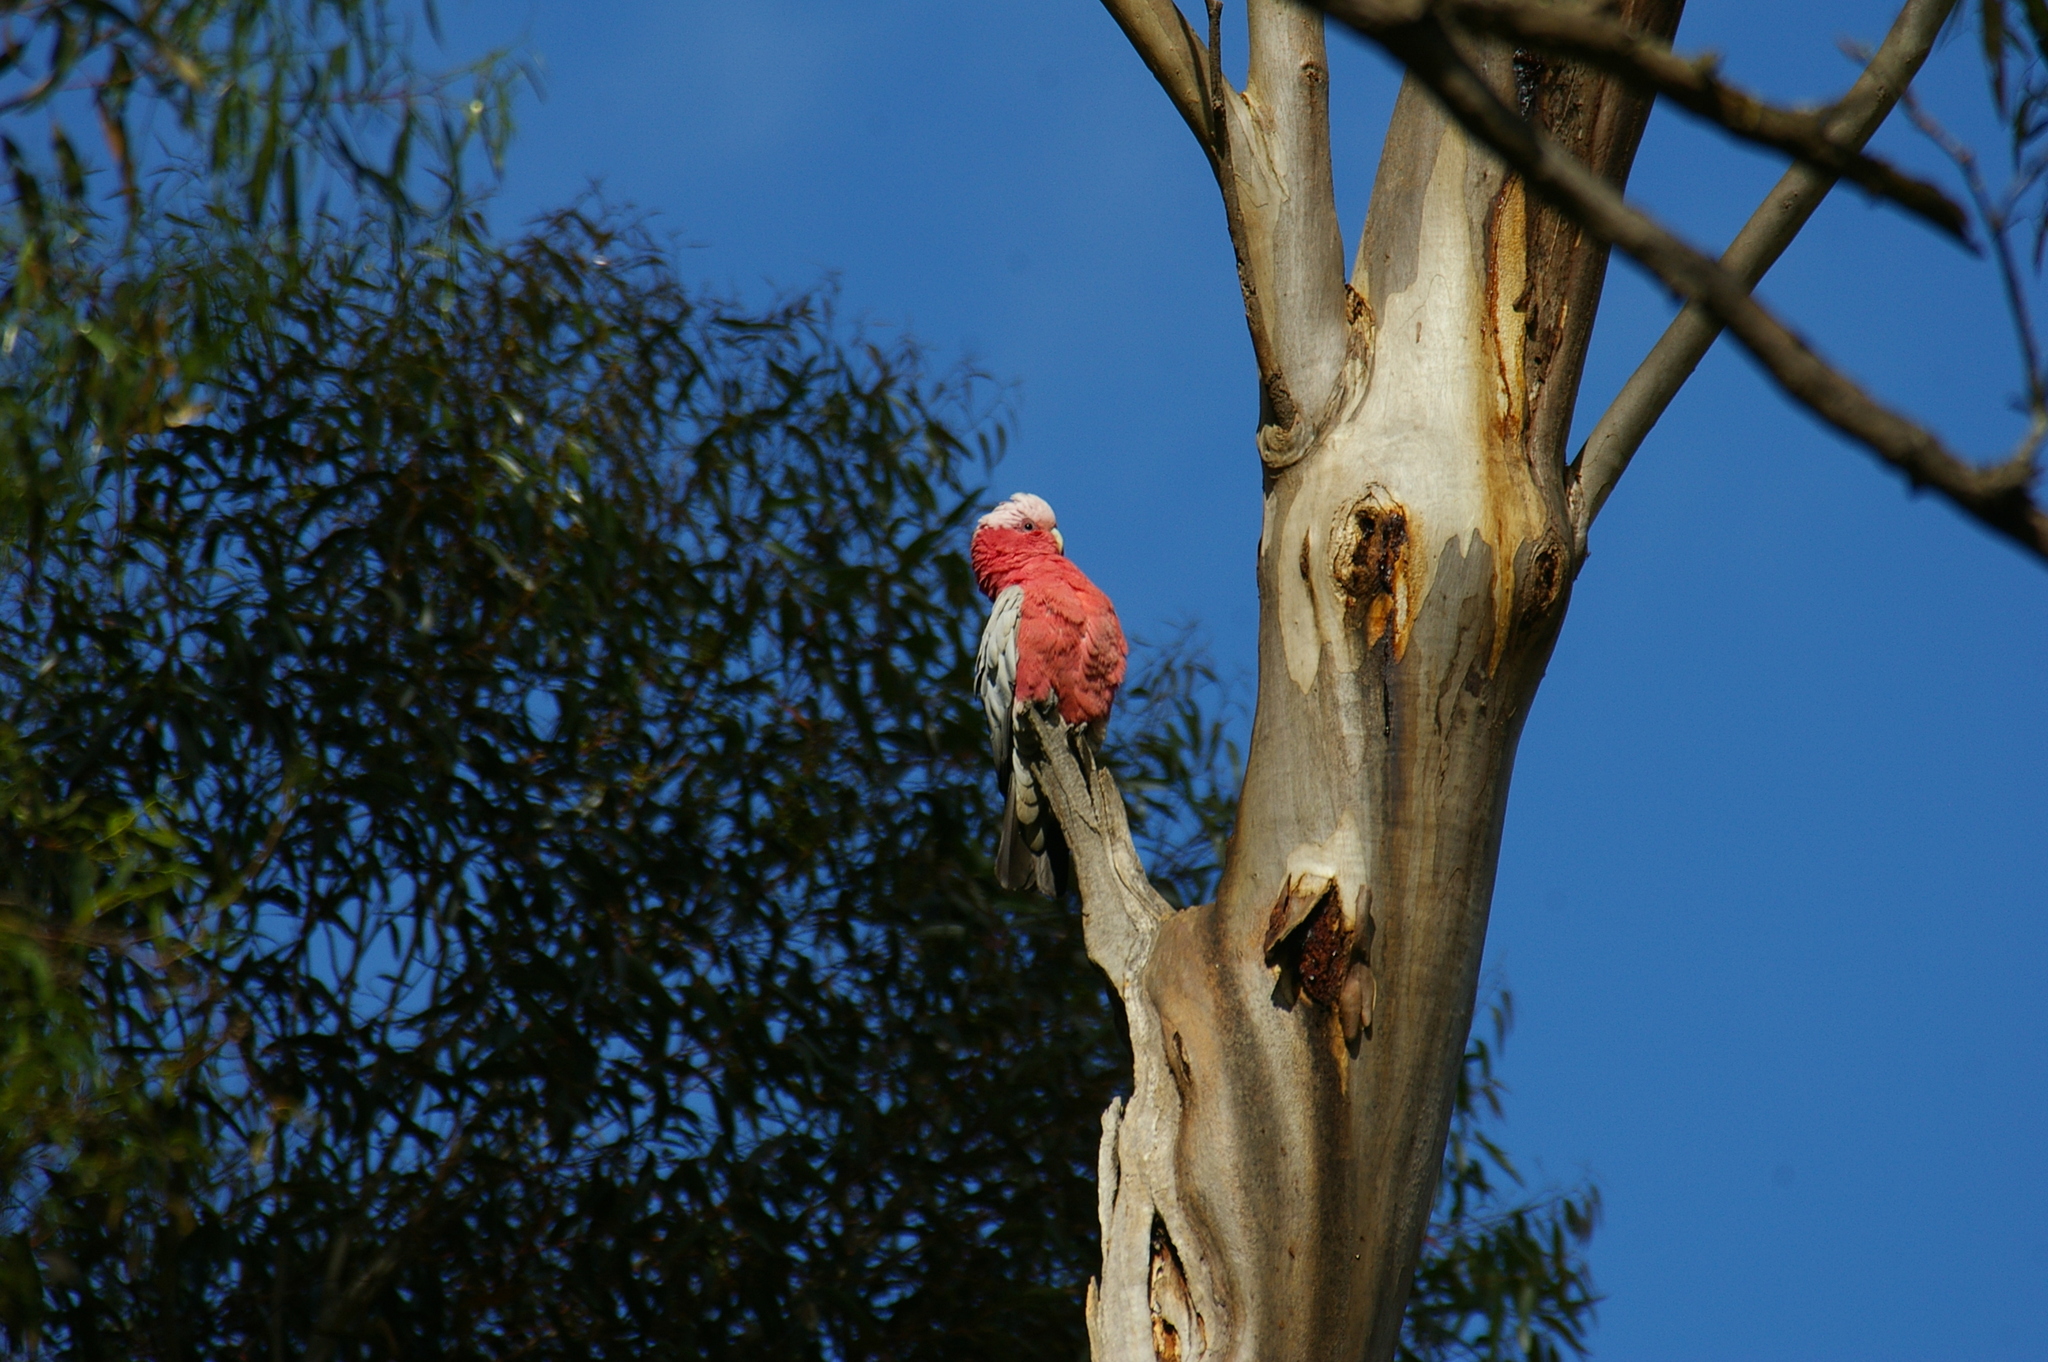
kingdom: Animalia
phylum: Chordata
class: Aves
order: Psittaciformes
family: Psittacidae
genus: Eolophus
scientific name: Eolophus roseicapilla
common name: Galah
